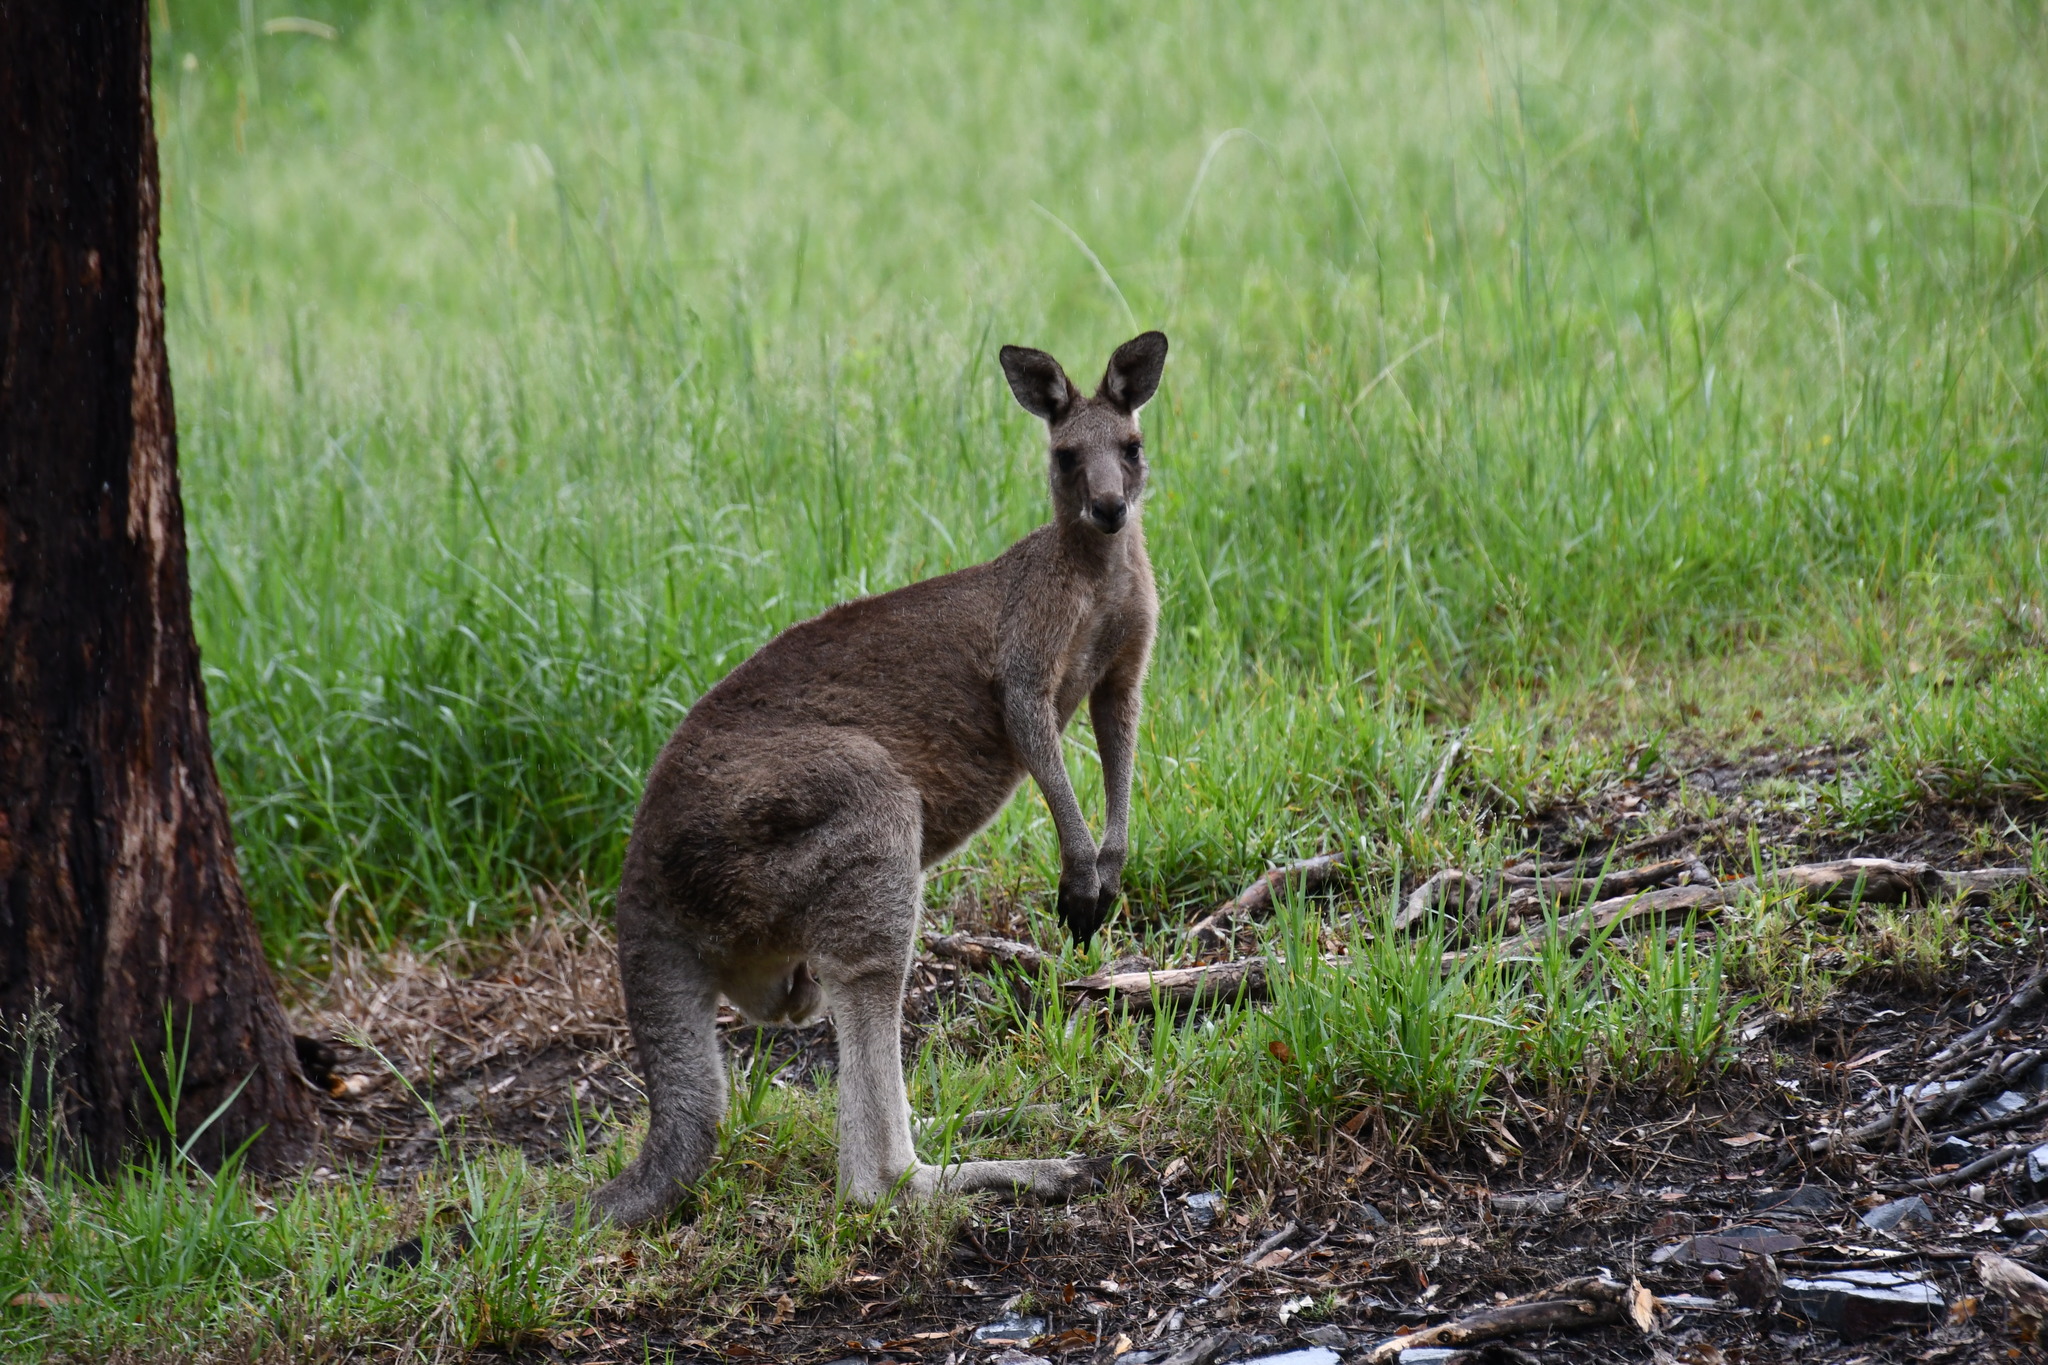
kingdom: Animalia
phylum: Chordata
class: Mammalia
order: Diprotodontia
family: Macropodidae
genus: Macropus
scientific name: Macropus giganteus
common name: Eastern grey kangaroo
